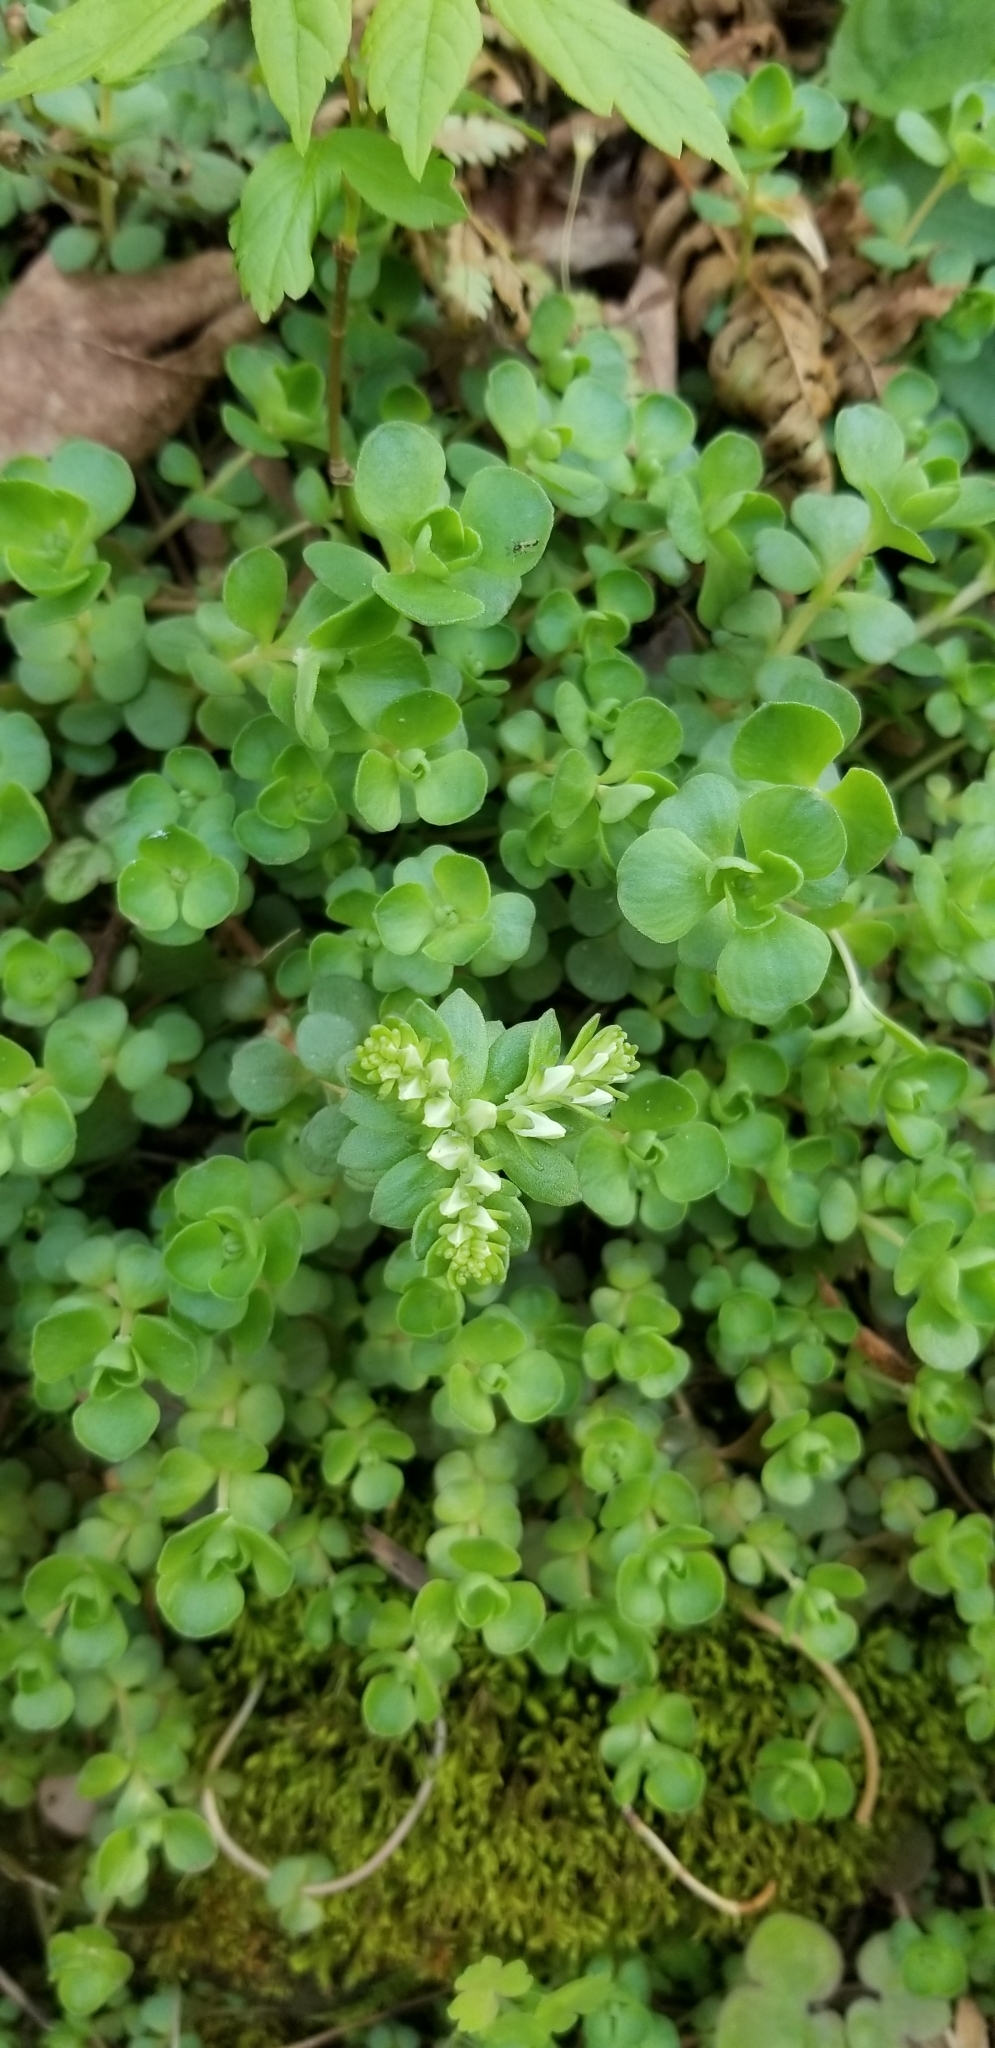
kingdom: Plantae
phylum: Tracheophyta
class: Magnoliopsida
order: Saxifragales
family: Crassulaceae
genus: Sedum
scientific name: Sedum ternatum
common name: Wild stonecrop
